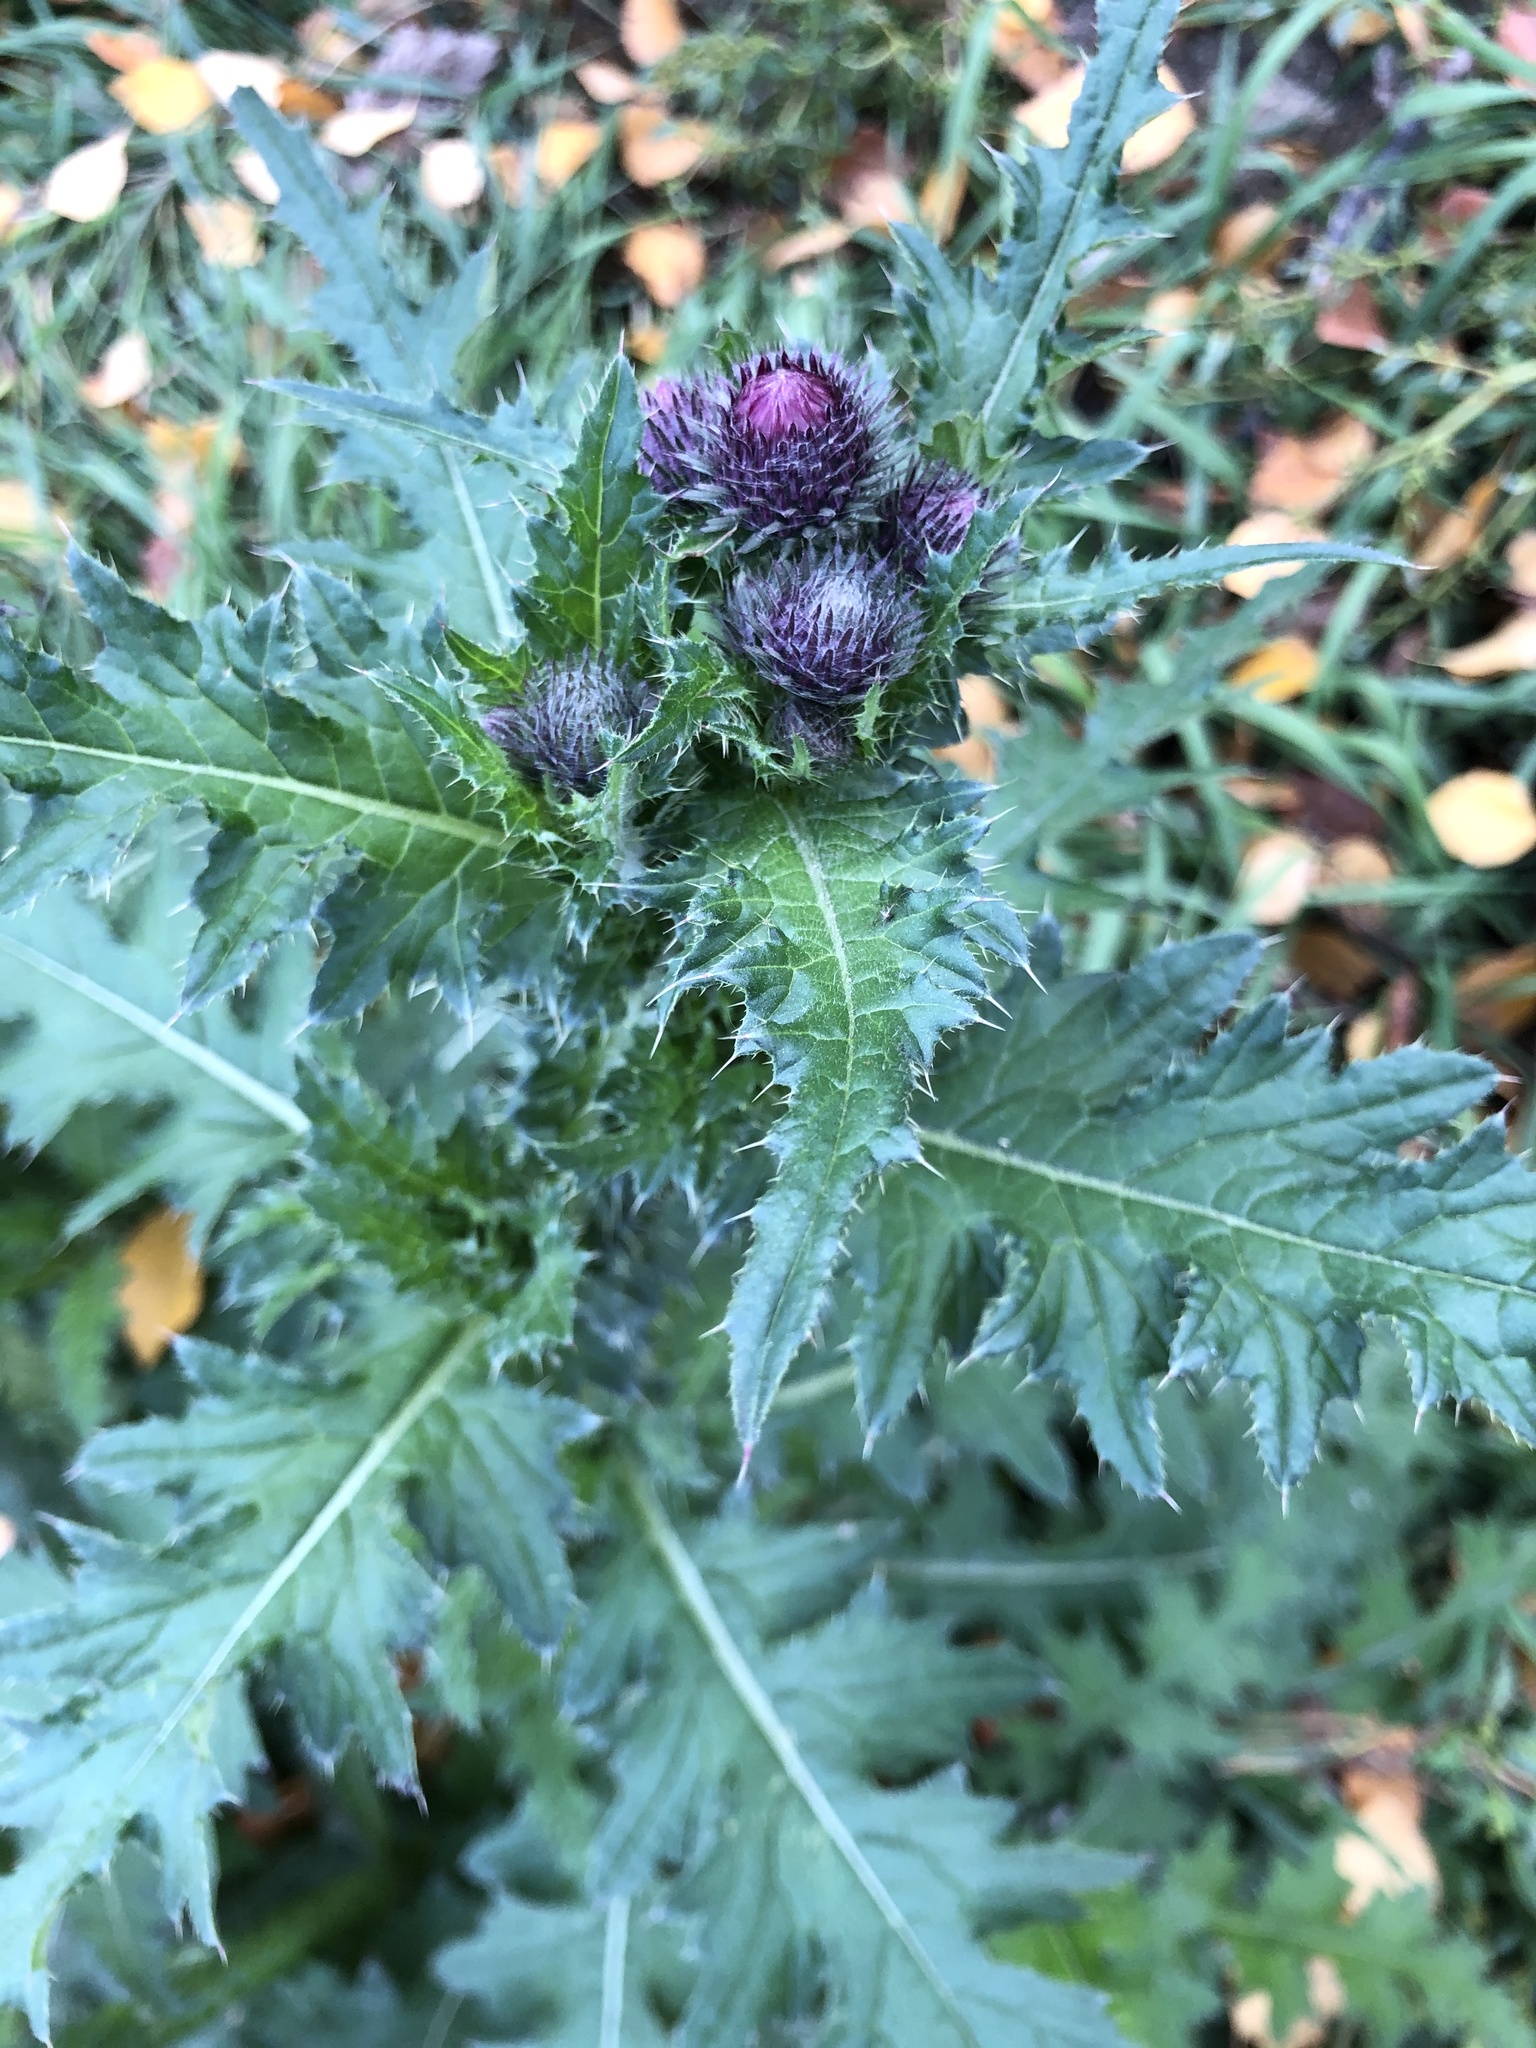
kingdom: Plantae
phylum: Tracheophyta
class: Magnoliopsida
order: Asterales
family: Asteraceae
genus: Carduus
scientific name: Carduus crispus
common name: Welted thistle
